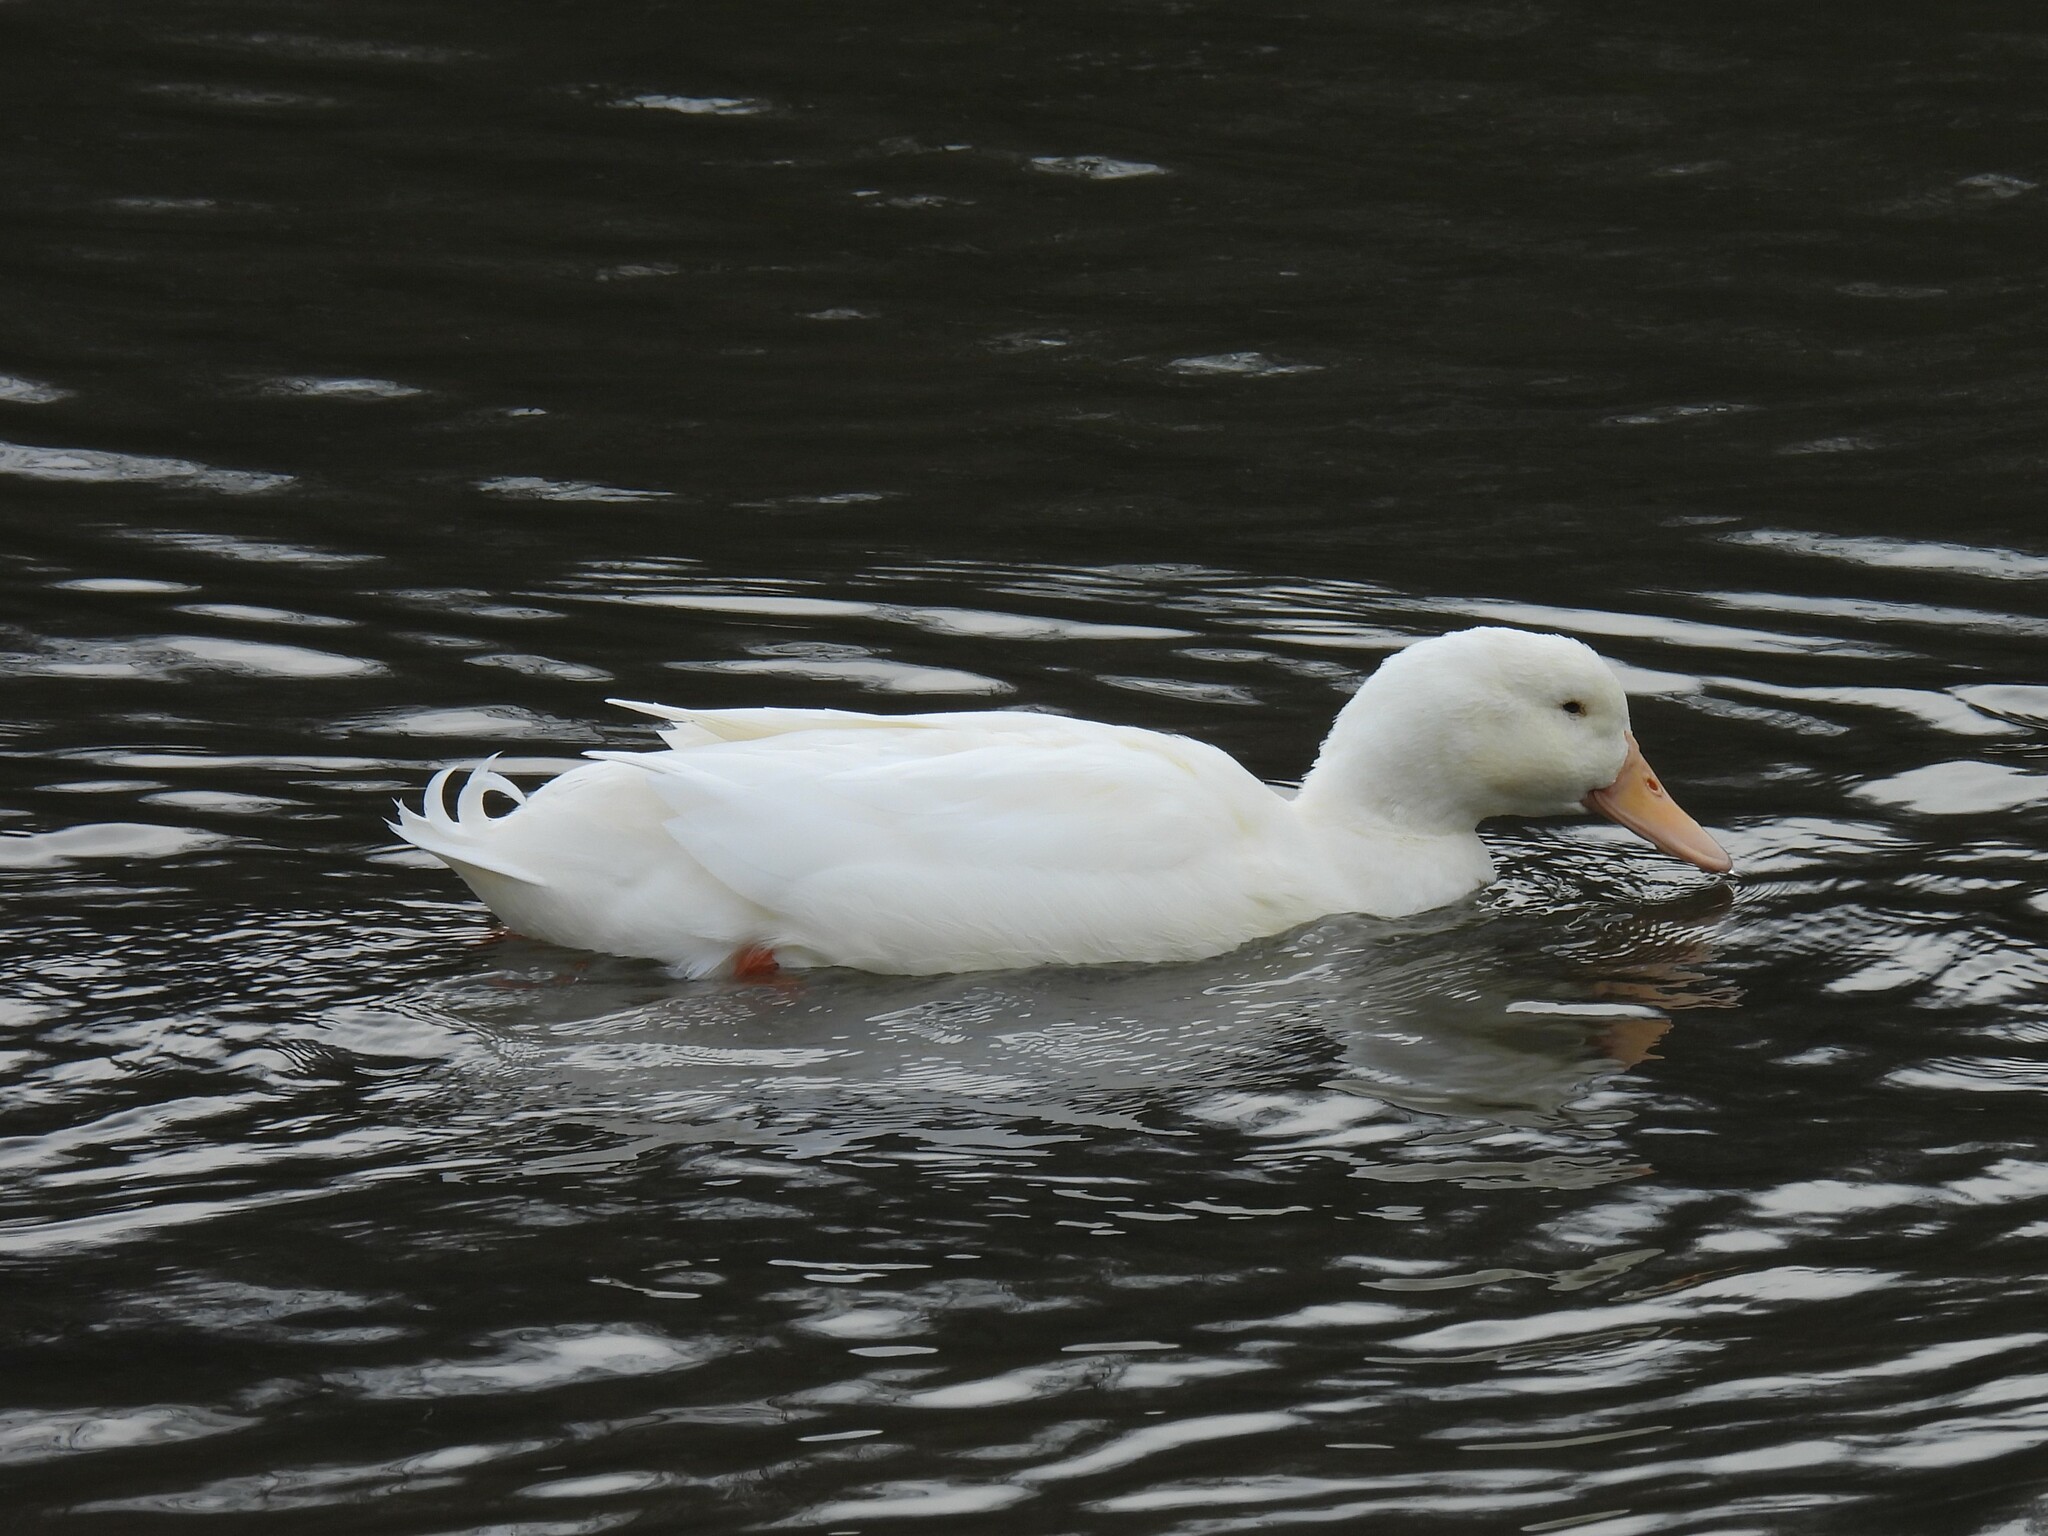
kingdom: Animalia
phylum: Chordata
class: Aves
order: Anseriformes
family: Anatidae
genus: Anas
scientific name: Anas platyrhynchos
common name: Mallard
